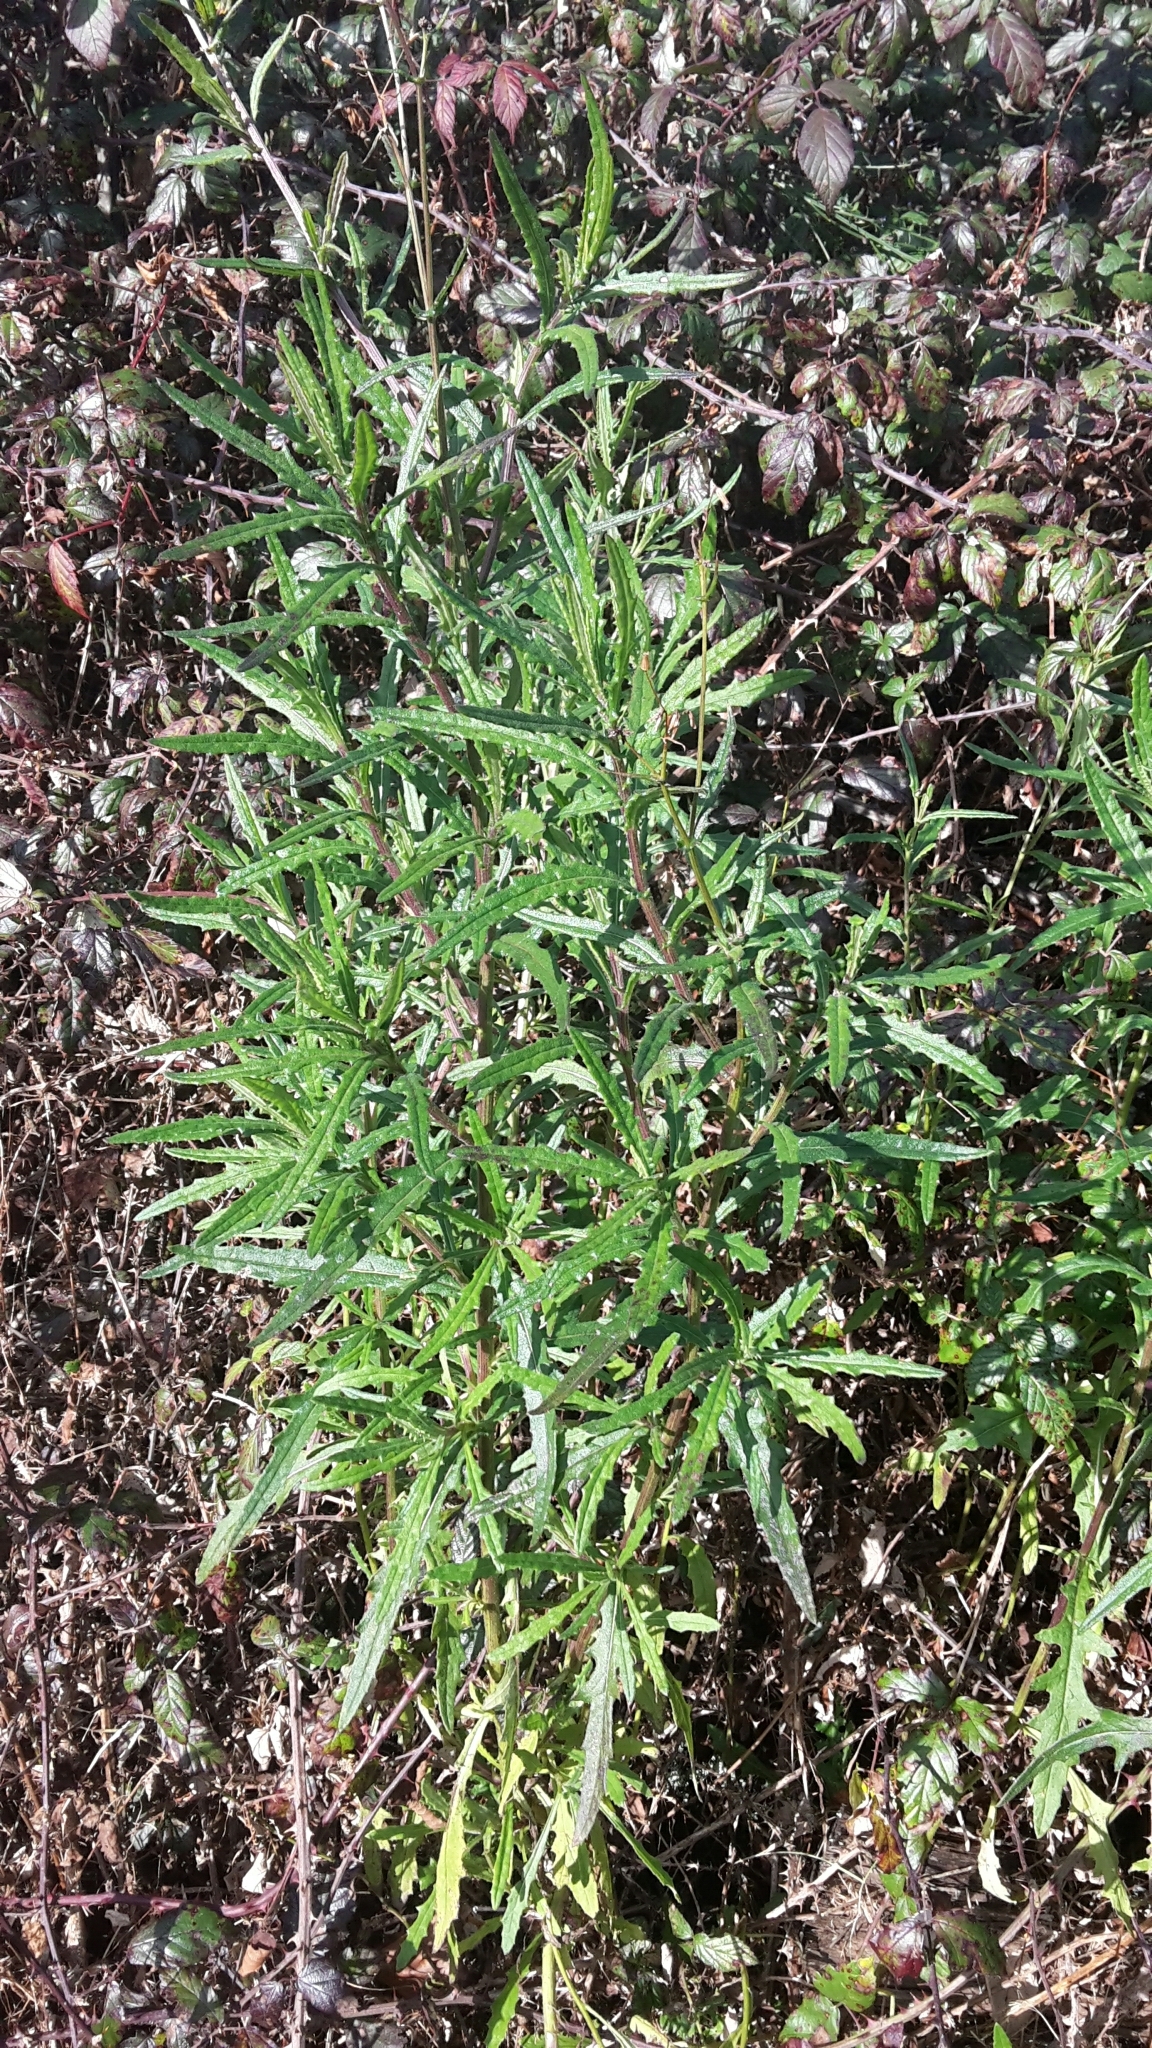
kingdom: Plantae
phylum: Tracheophyta
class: Magnoliopsida
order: Asterales
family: Asteraceae
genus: Senecio
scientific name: Senecio hispidulus
